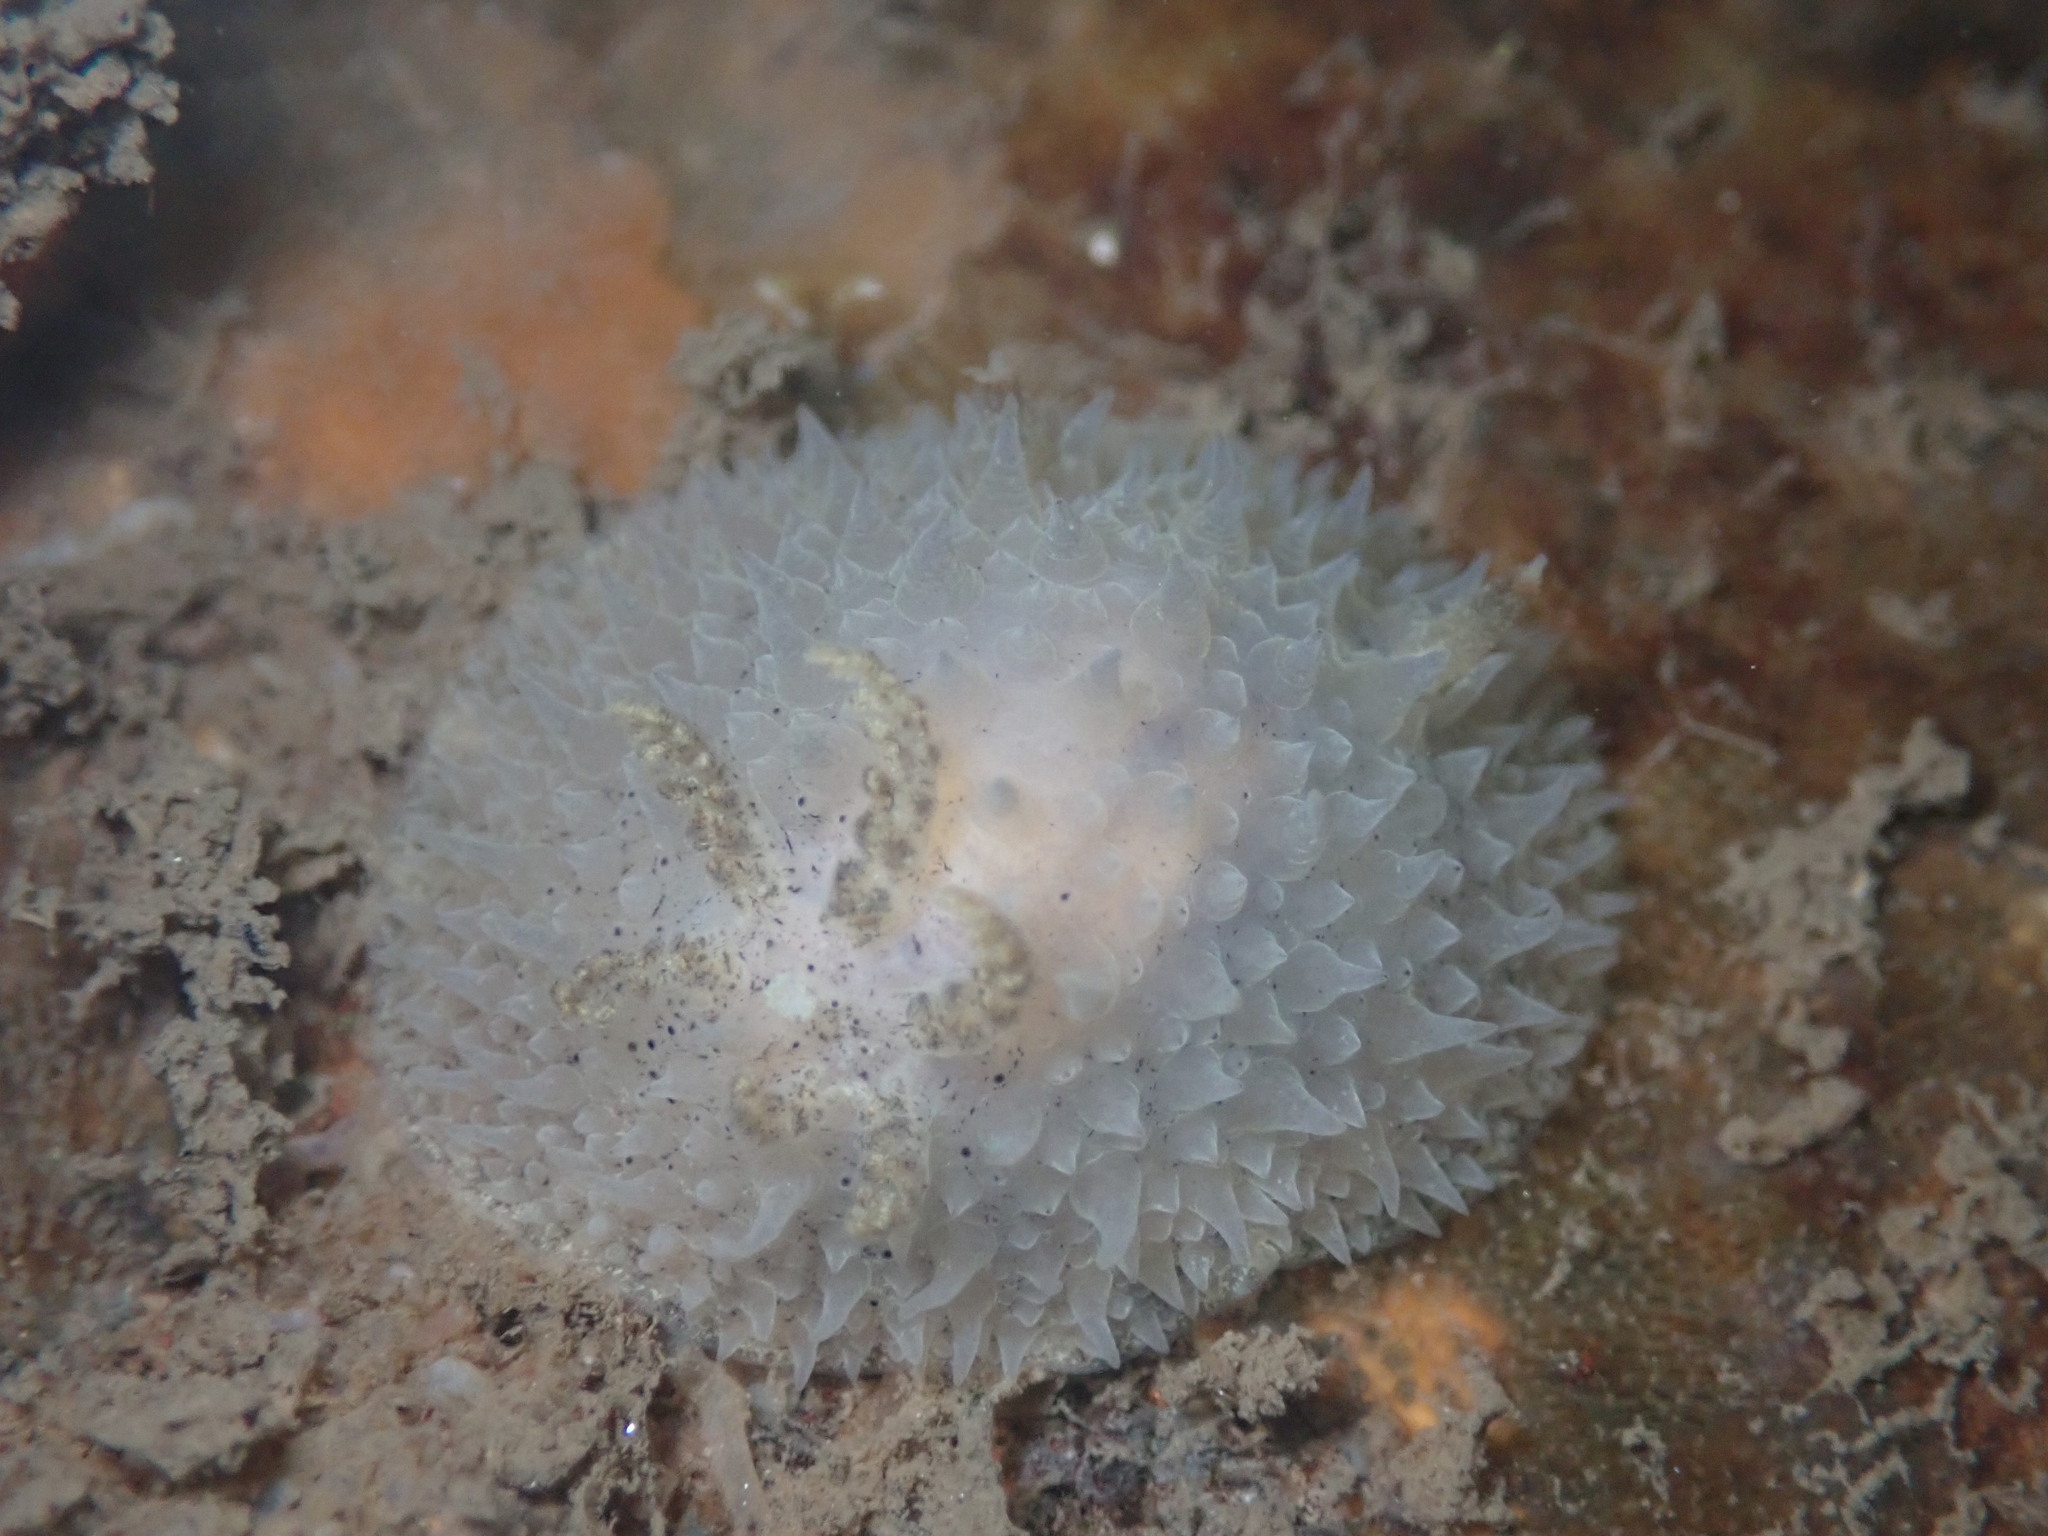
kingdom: Animalia
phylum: Mollusca
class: Gastropoda
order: Nudibranchia
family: Onchidorididae
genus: Acanthodoris
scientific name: Acanthodoris rhodoceras
